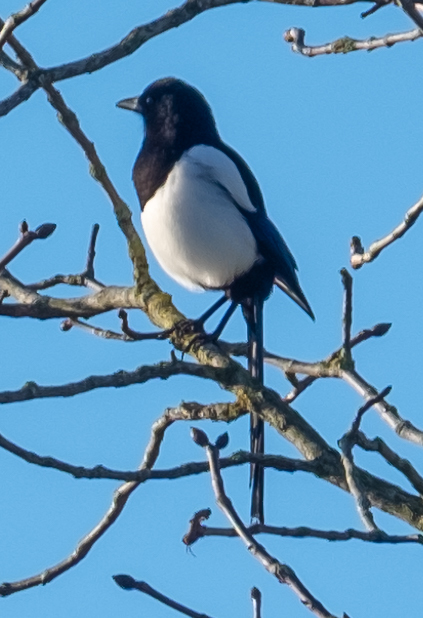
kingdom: Animalia
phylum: Chordata
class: Aves
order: Passeriformes
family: Corvidae
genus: Pica
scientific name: Pica pica
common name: Eurasian magpie
